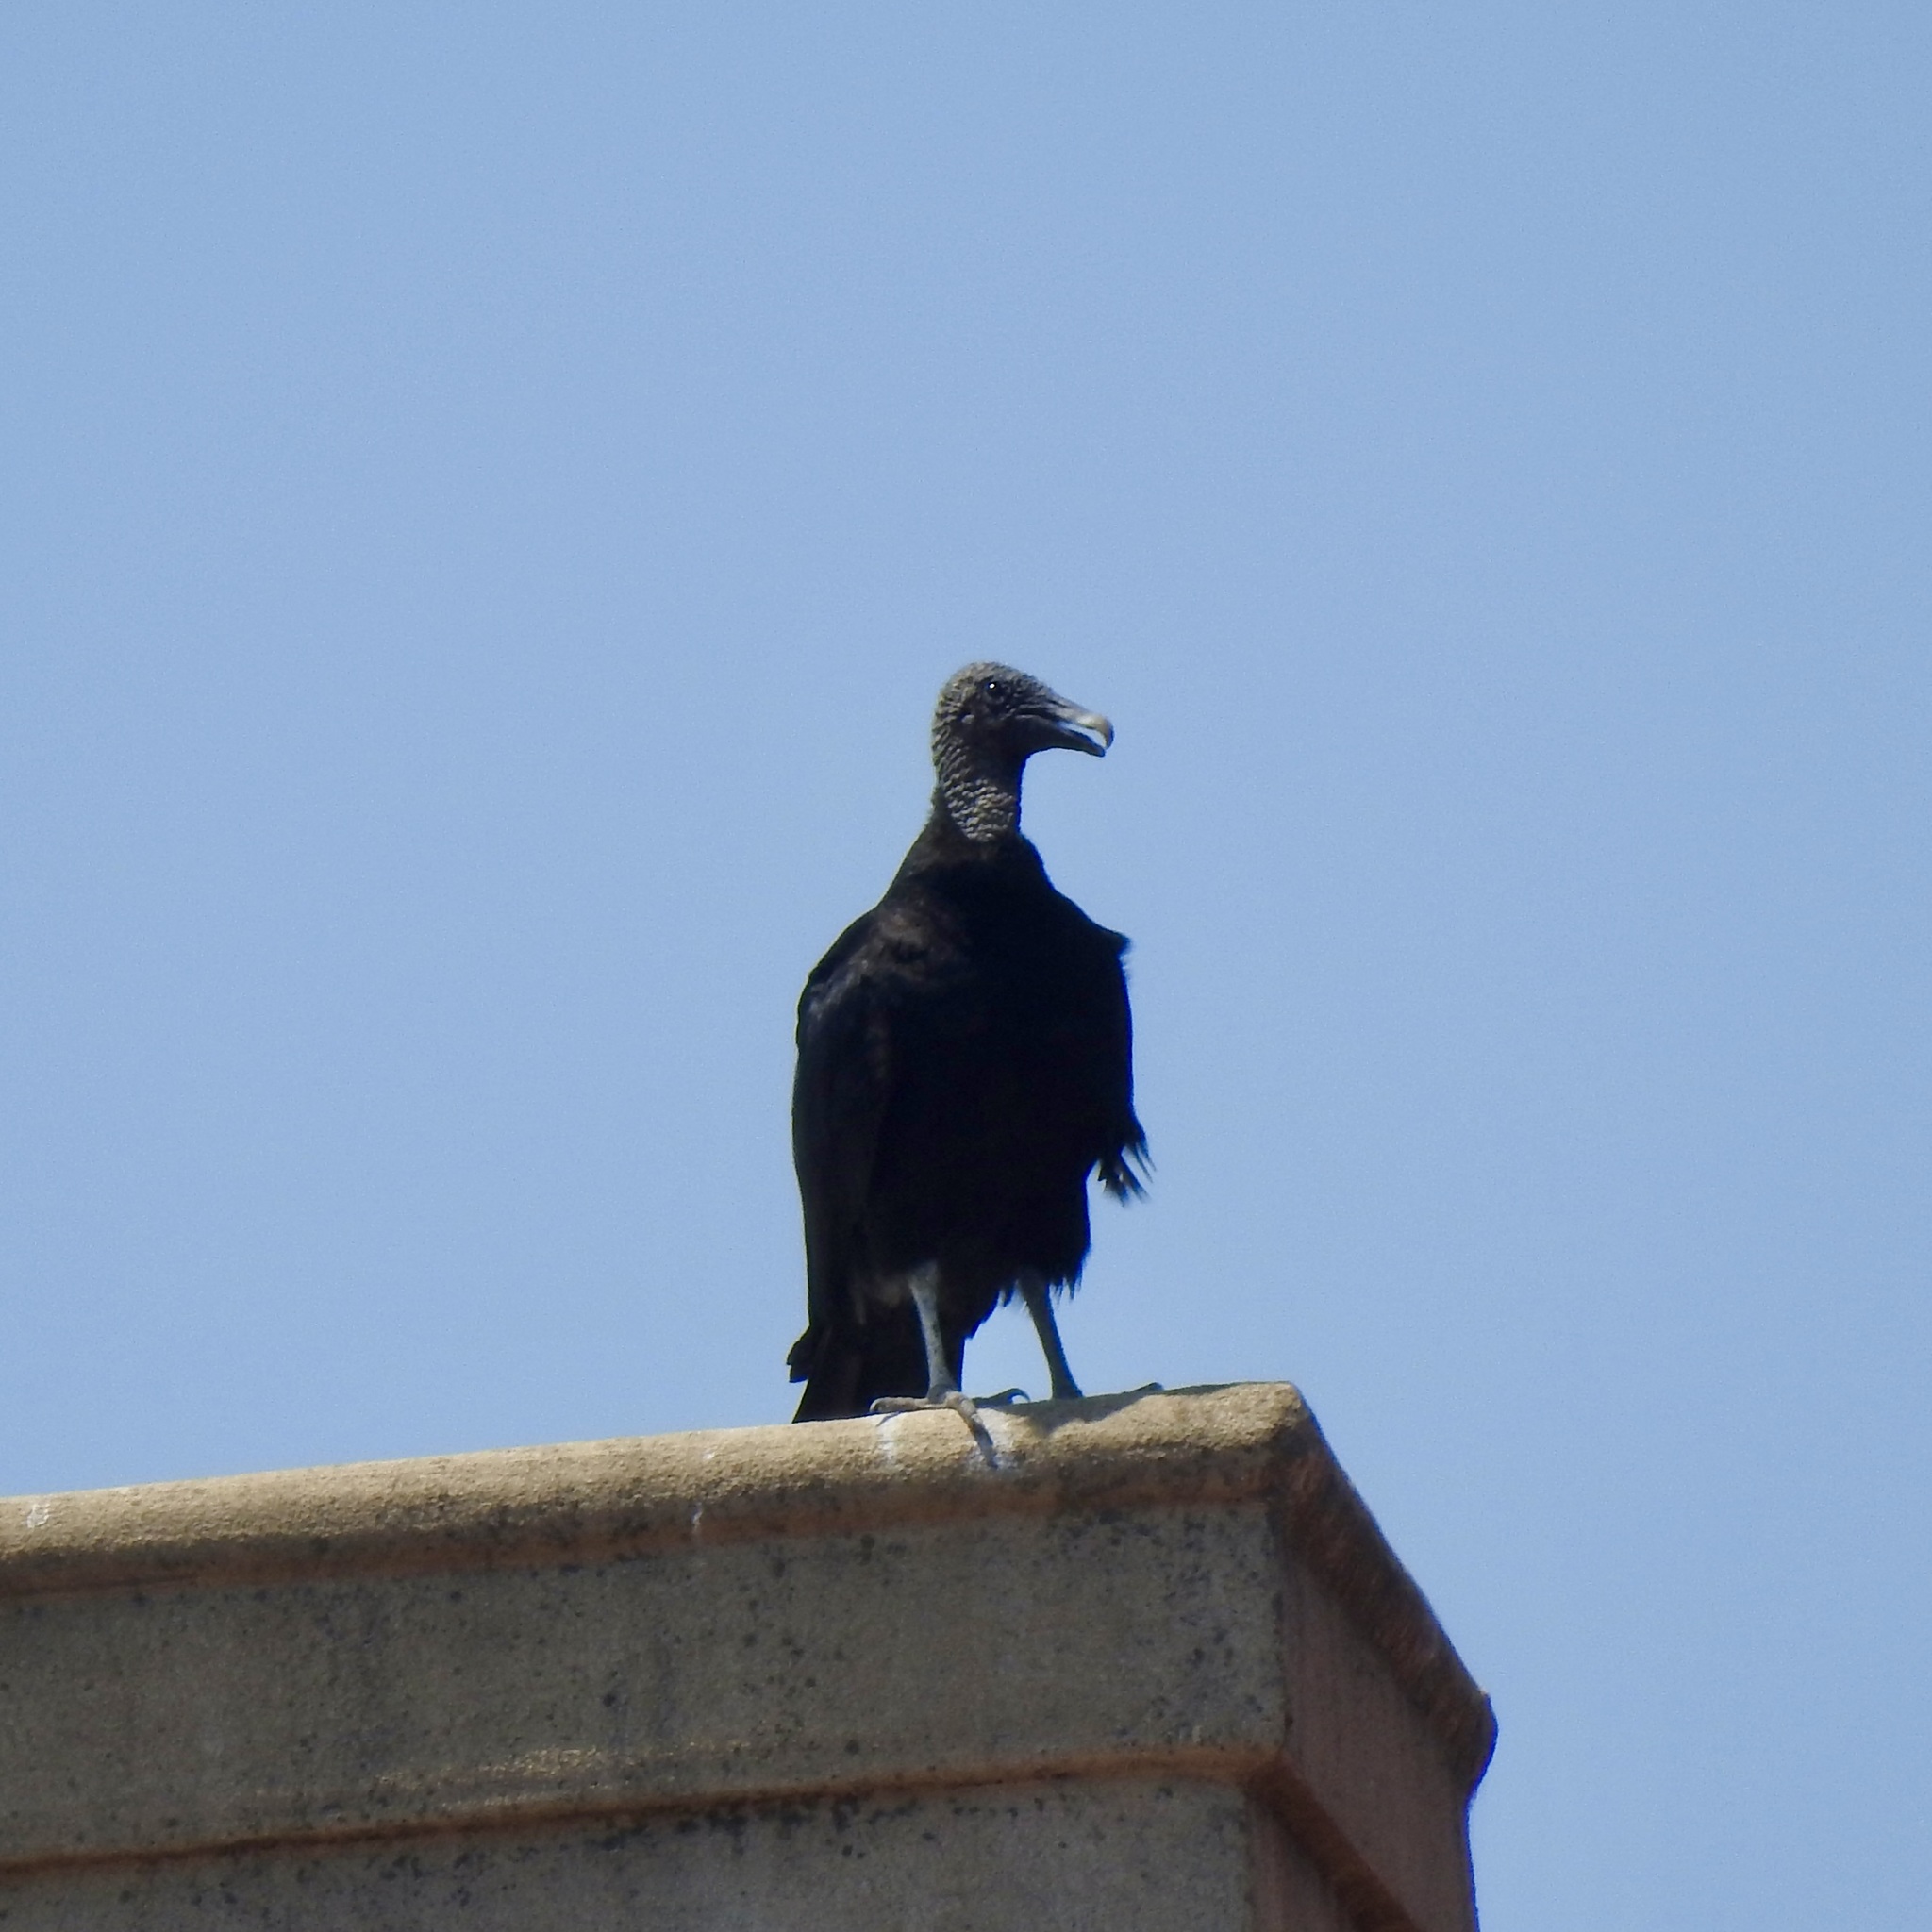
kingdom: Animalia
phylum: Chordata
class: Aves
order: Accipitriformes
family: Cathartidae
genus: Coragyps
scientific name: Coragyps atratus
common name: Black vulture
